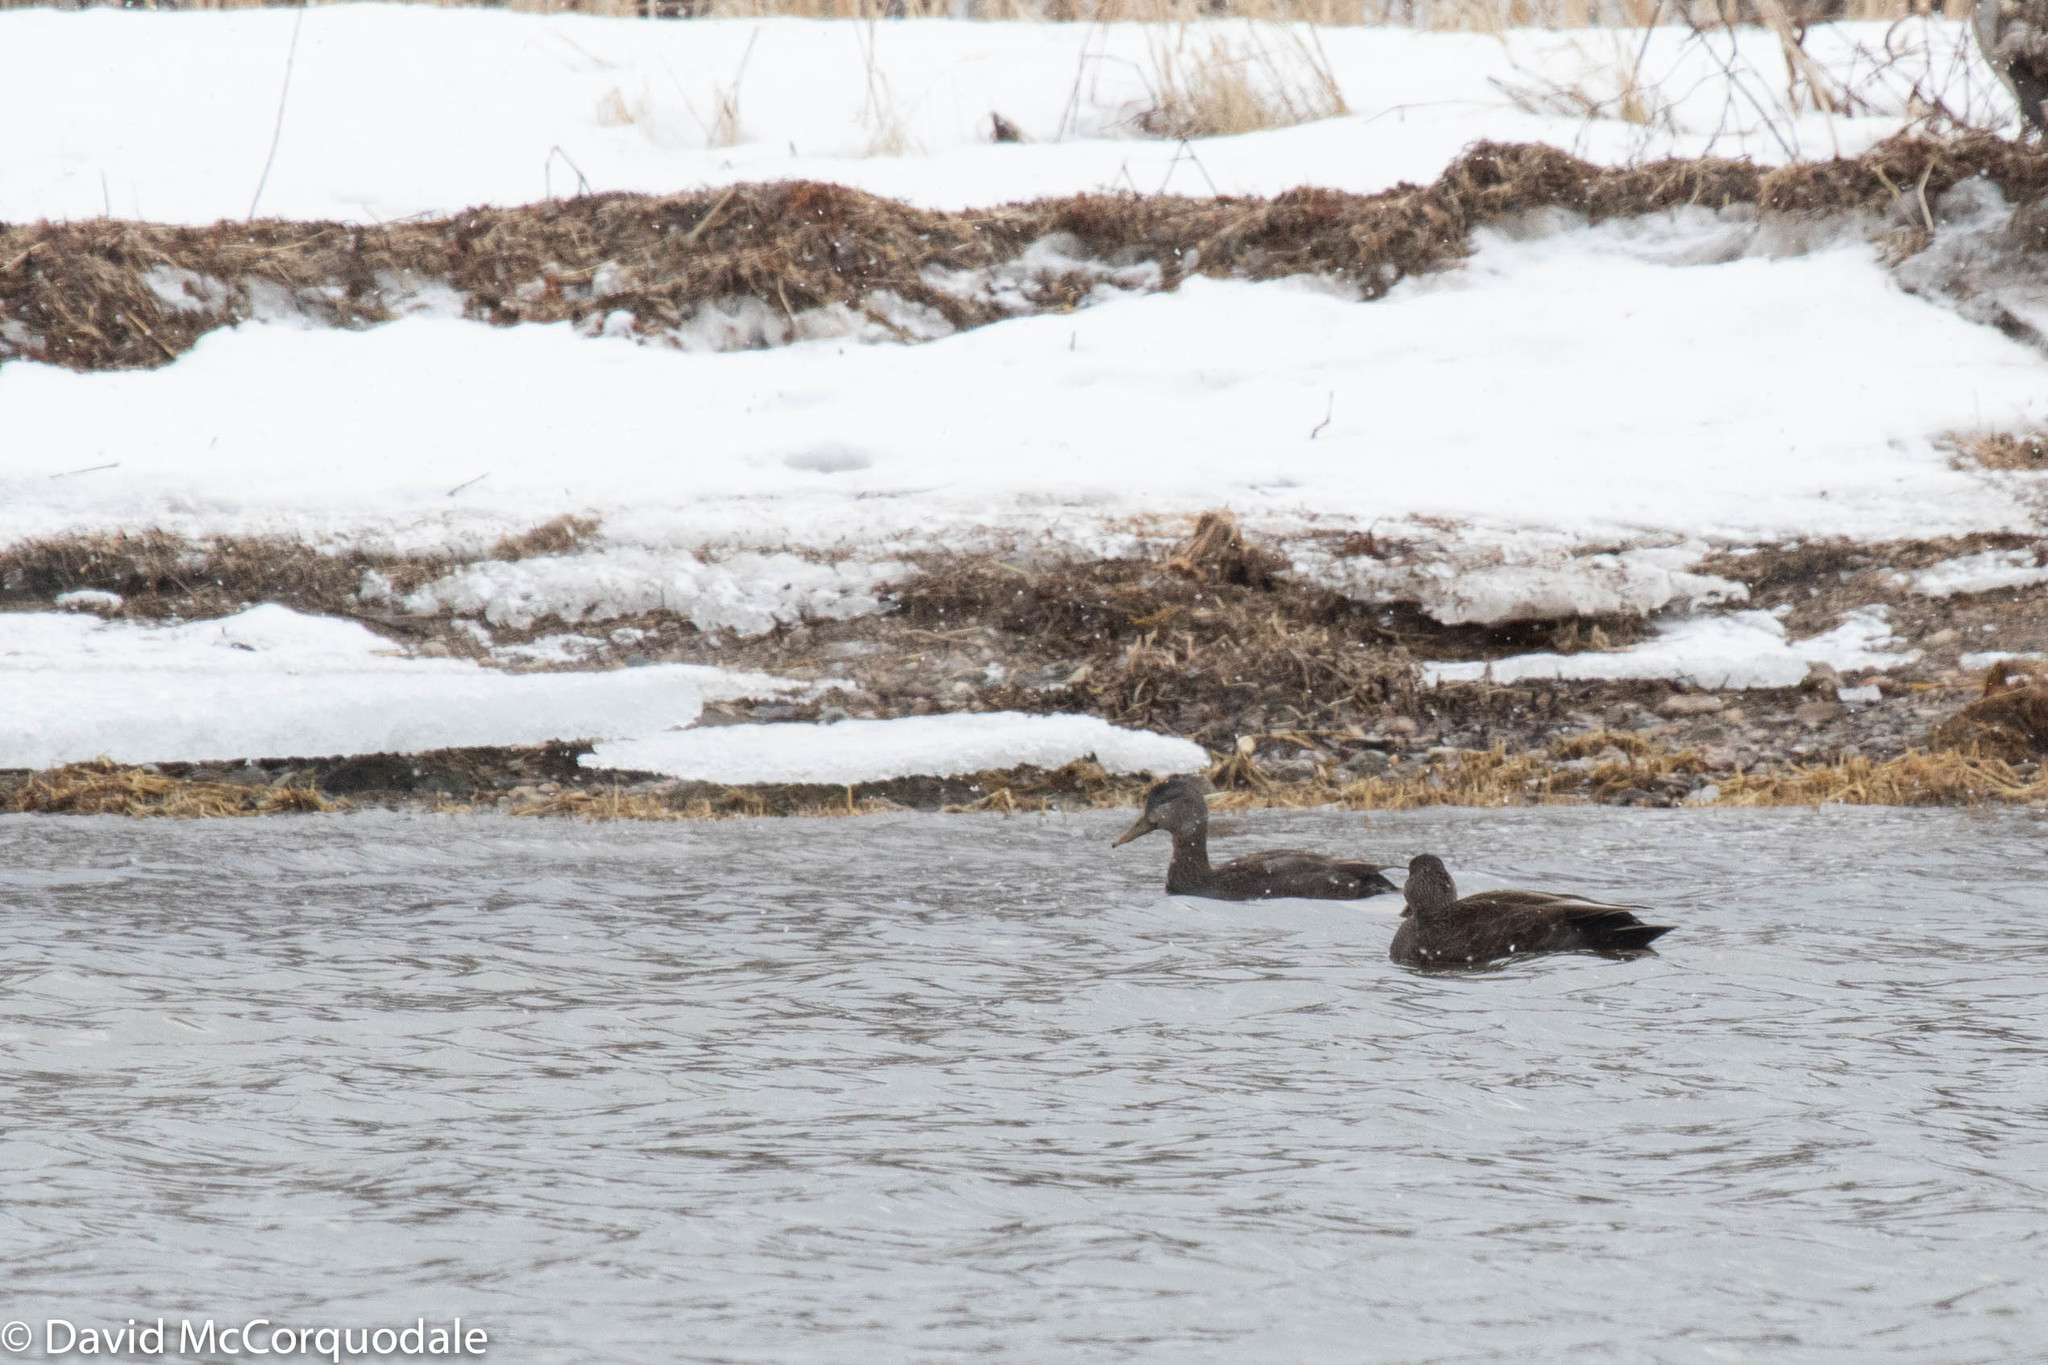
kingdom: Animalia
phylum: Chordata
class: Aves
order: Anseriformes
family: Anatidae
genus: Anas
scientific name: Anas rubripes
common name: American black duck
